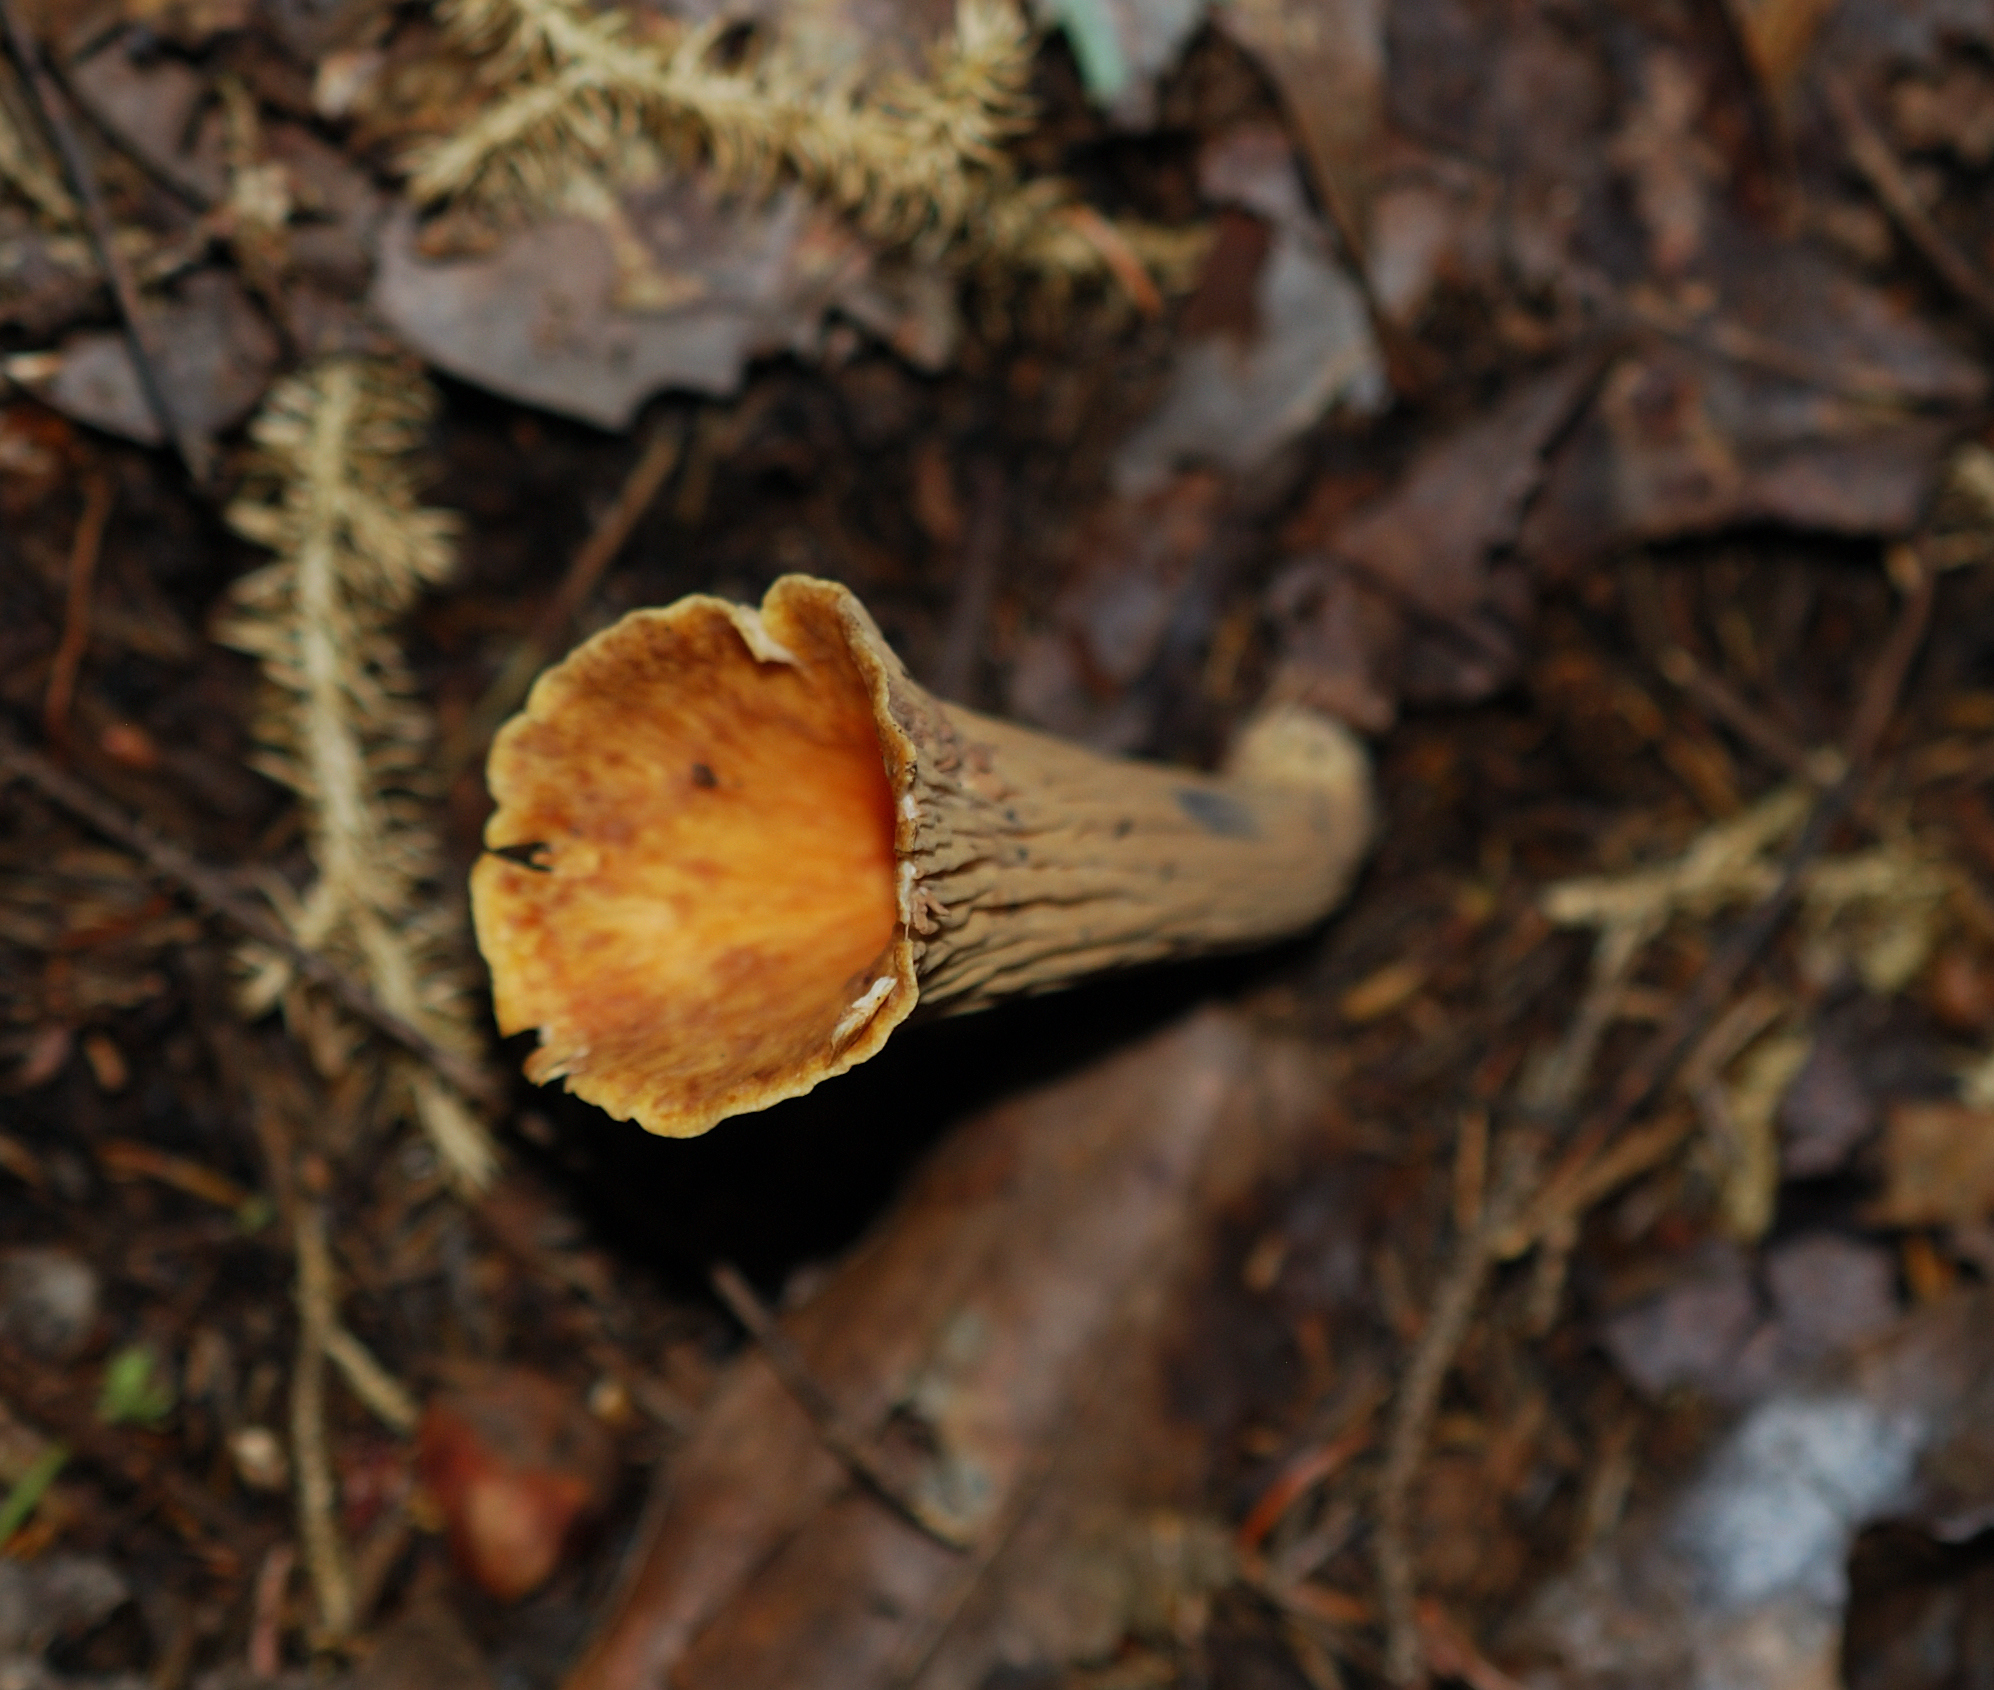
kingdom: Fungi
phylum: Basidiomycota
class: Agaricomycetes
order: Gomphales
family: Gomphaceae
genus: Turbinellus
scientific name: Turbinellus floccosus
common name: Scaly chanterelle
